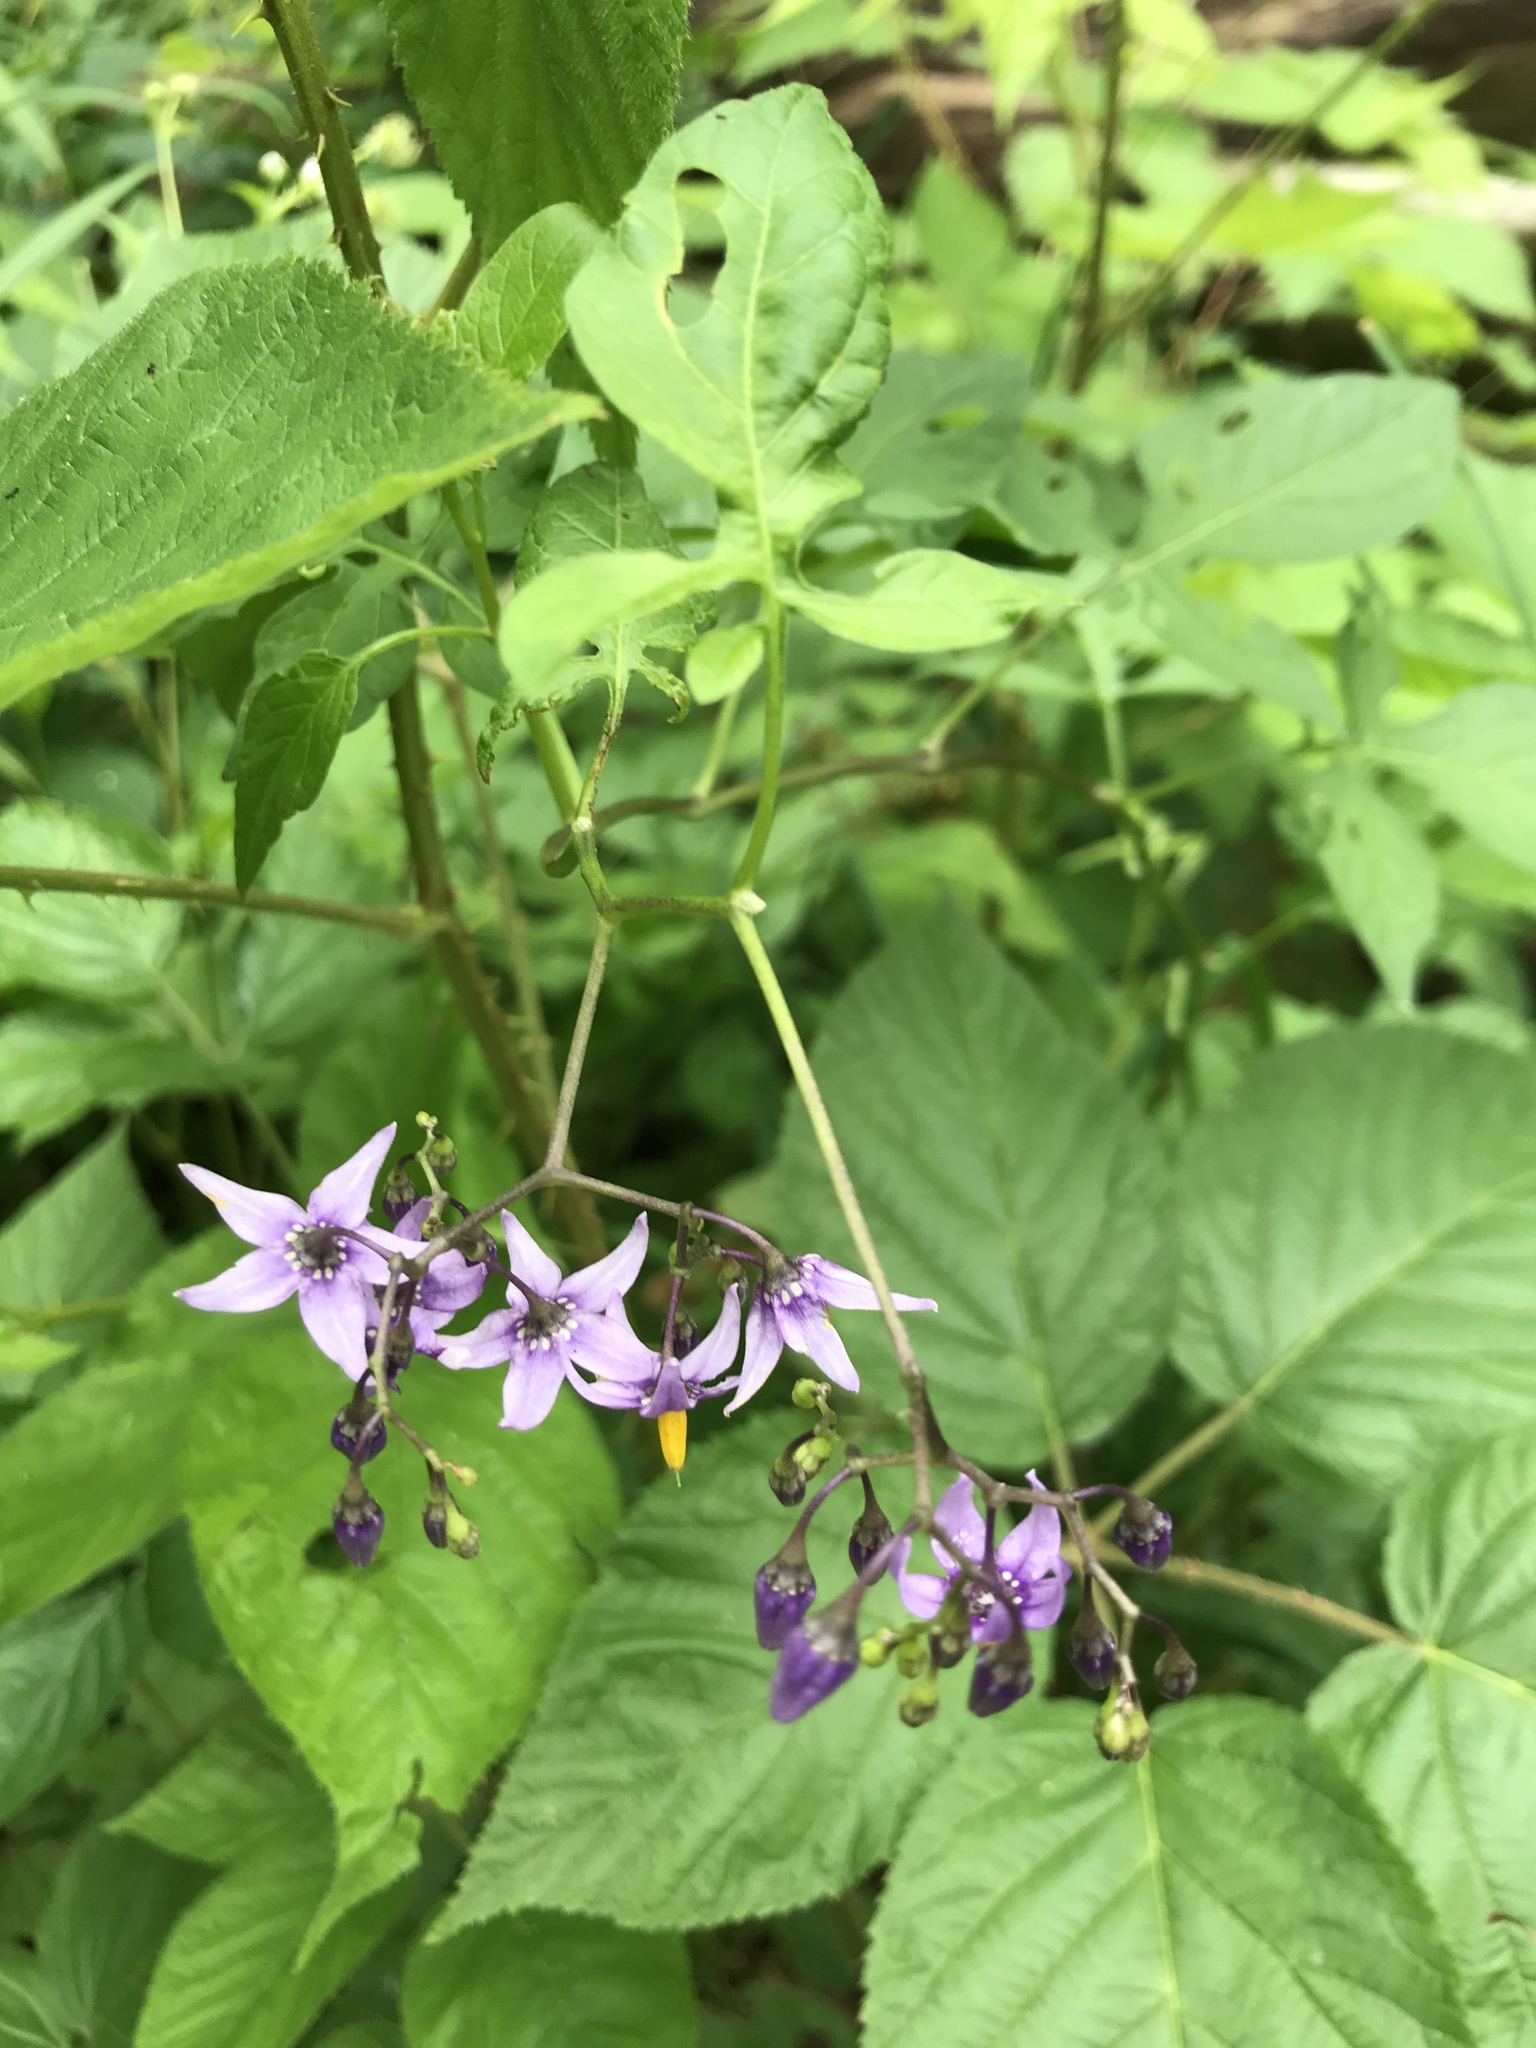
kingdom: Plantae
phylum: Tracheophyta
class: Magnoliopsida
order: Solanales
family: Solanaceae
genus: Solanum
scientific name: Solanum dulcamara
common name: Climbing nightshade
